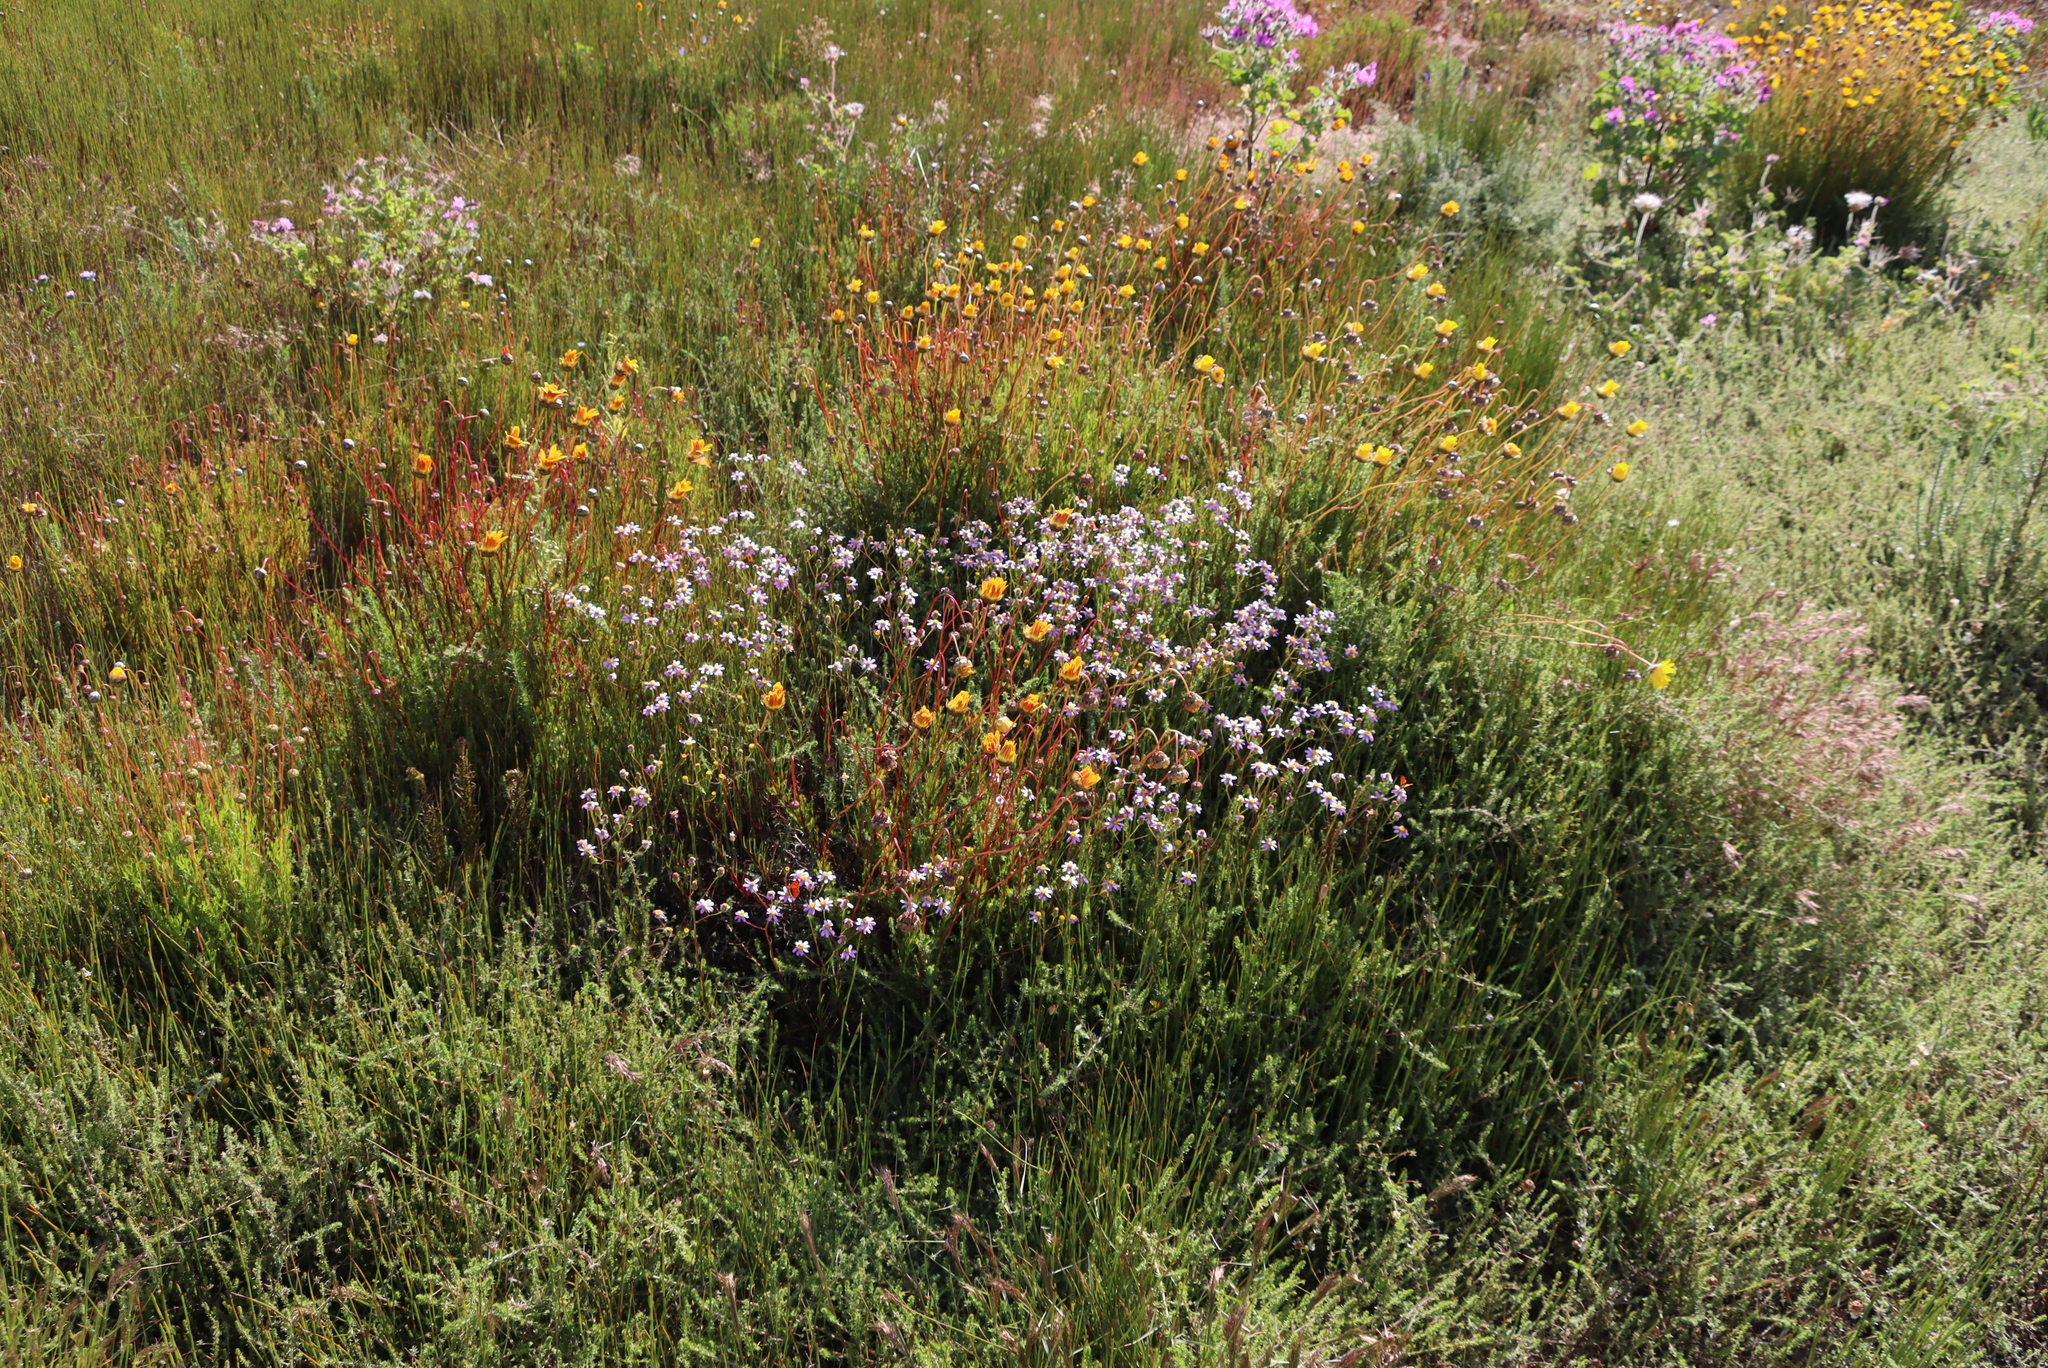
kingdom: Plantae
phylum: Tracheophyta
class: Magnoliopsida
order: Asterales
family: Asteraceae
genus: Senecio
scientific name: Senecio umbellatus
